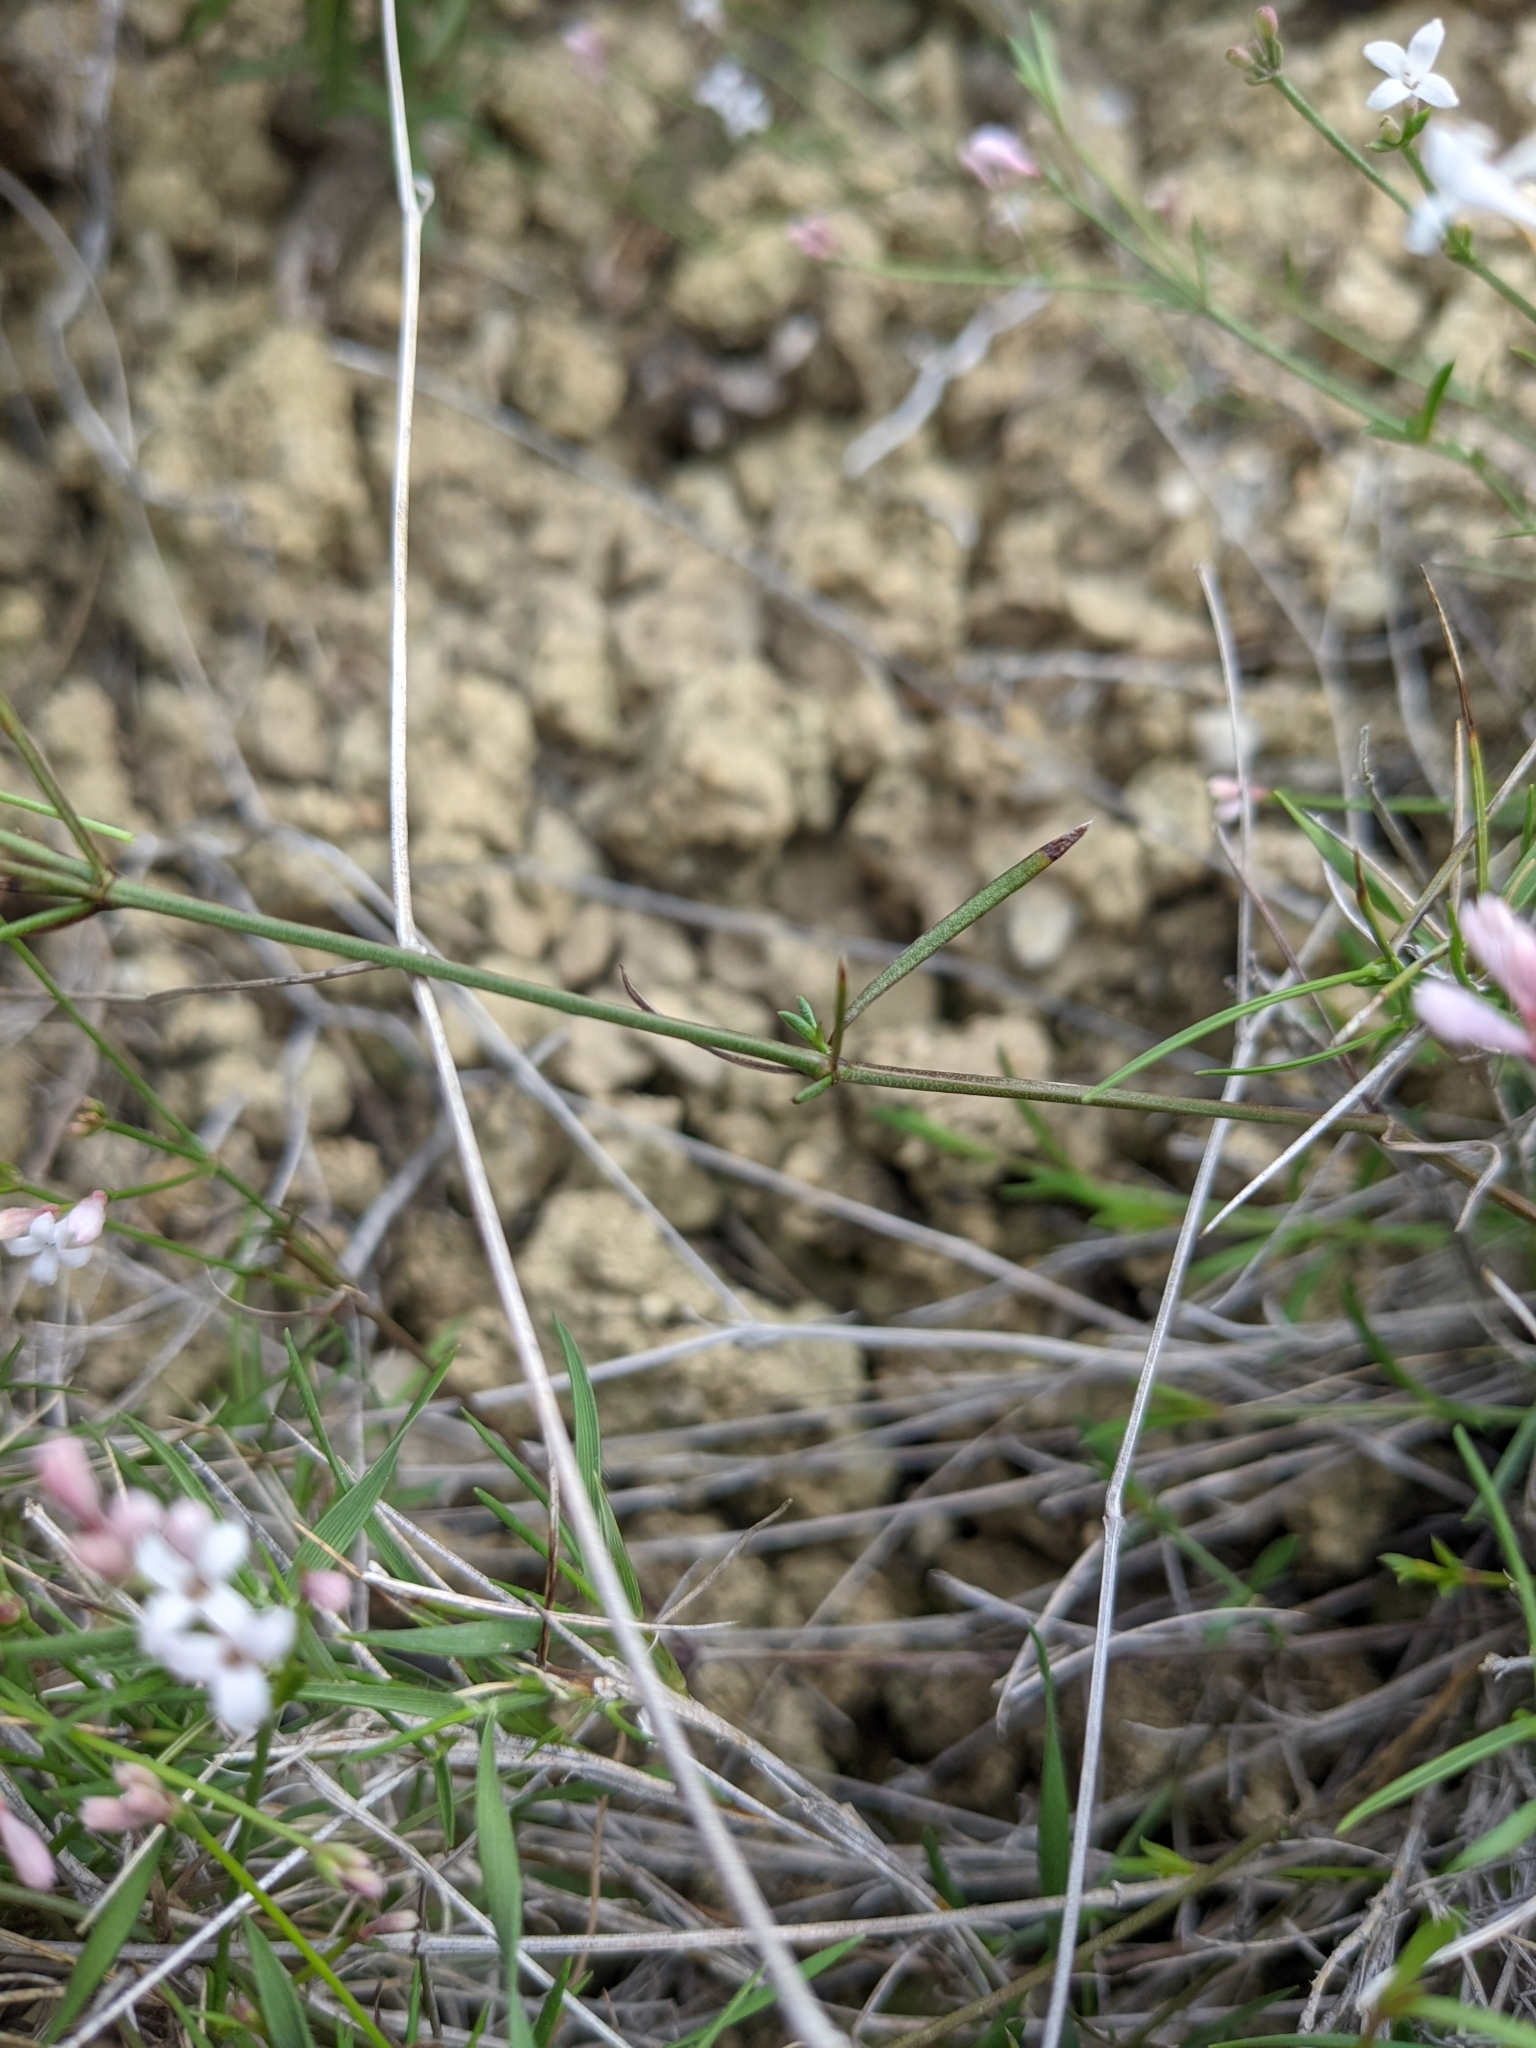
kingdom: Plantae
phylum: Tracheophyta
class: Magnoliopsida
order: Gentianales
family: Rubiaceae
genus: Cynanchica
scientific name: Cynanchica pyrenaica
